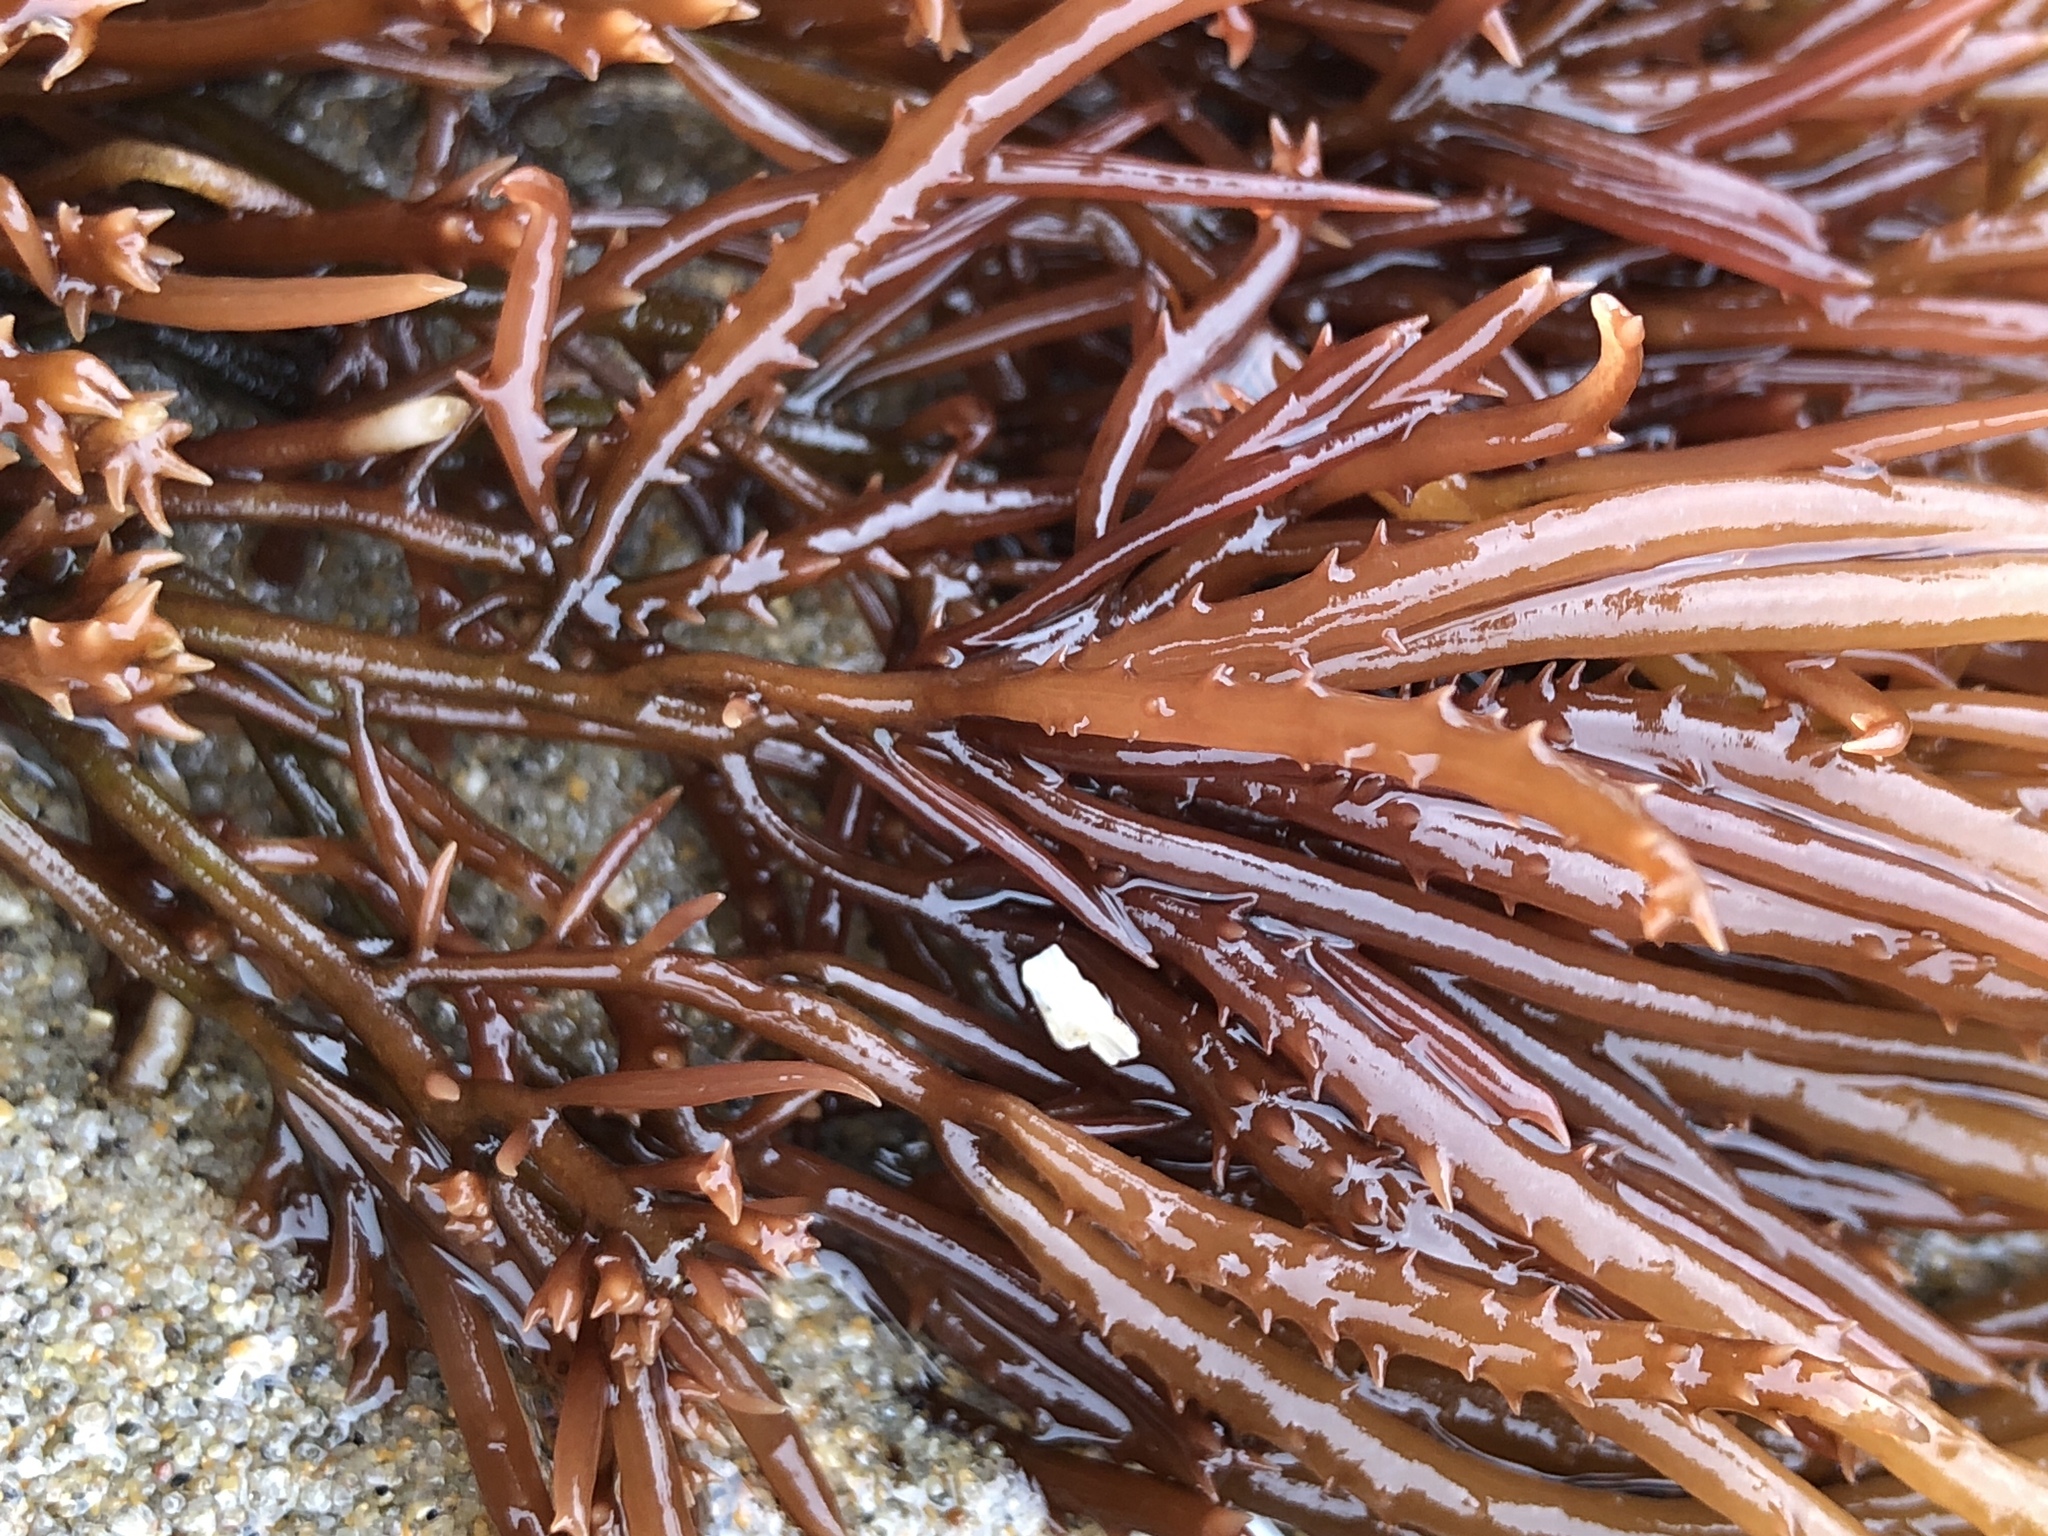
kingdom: Plantae
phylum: Rhodophyta
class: Florideophyceae
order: Gigartinales
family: Solieriaceae
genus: Sarcodiotheca
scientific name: Sarcodiotheca gaudichaudii
